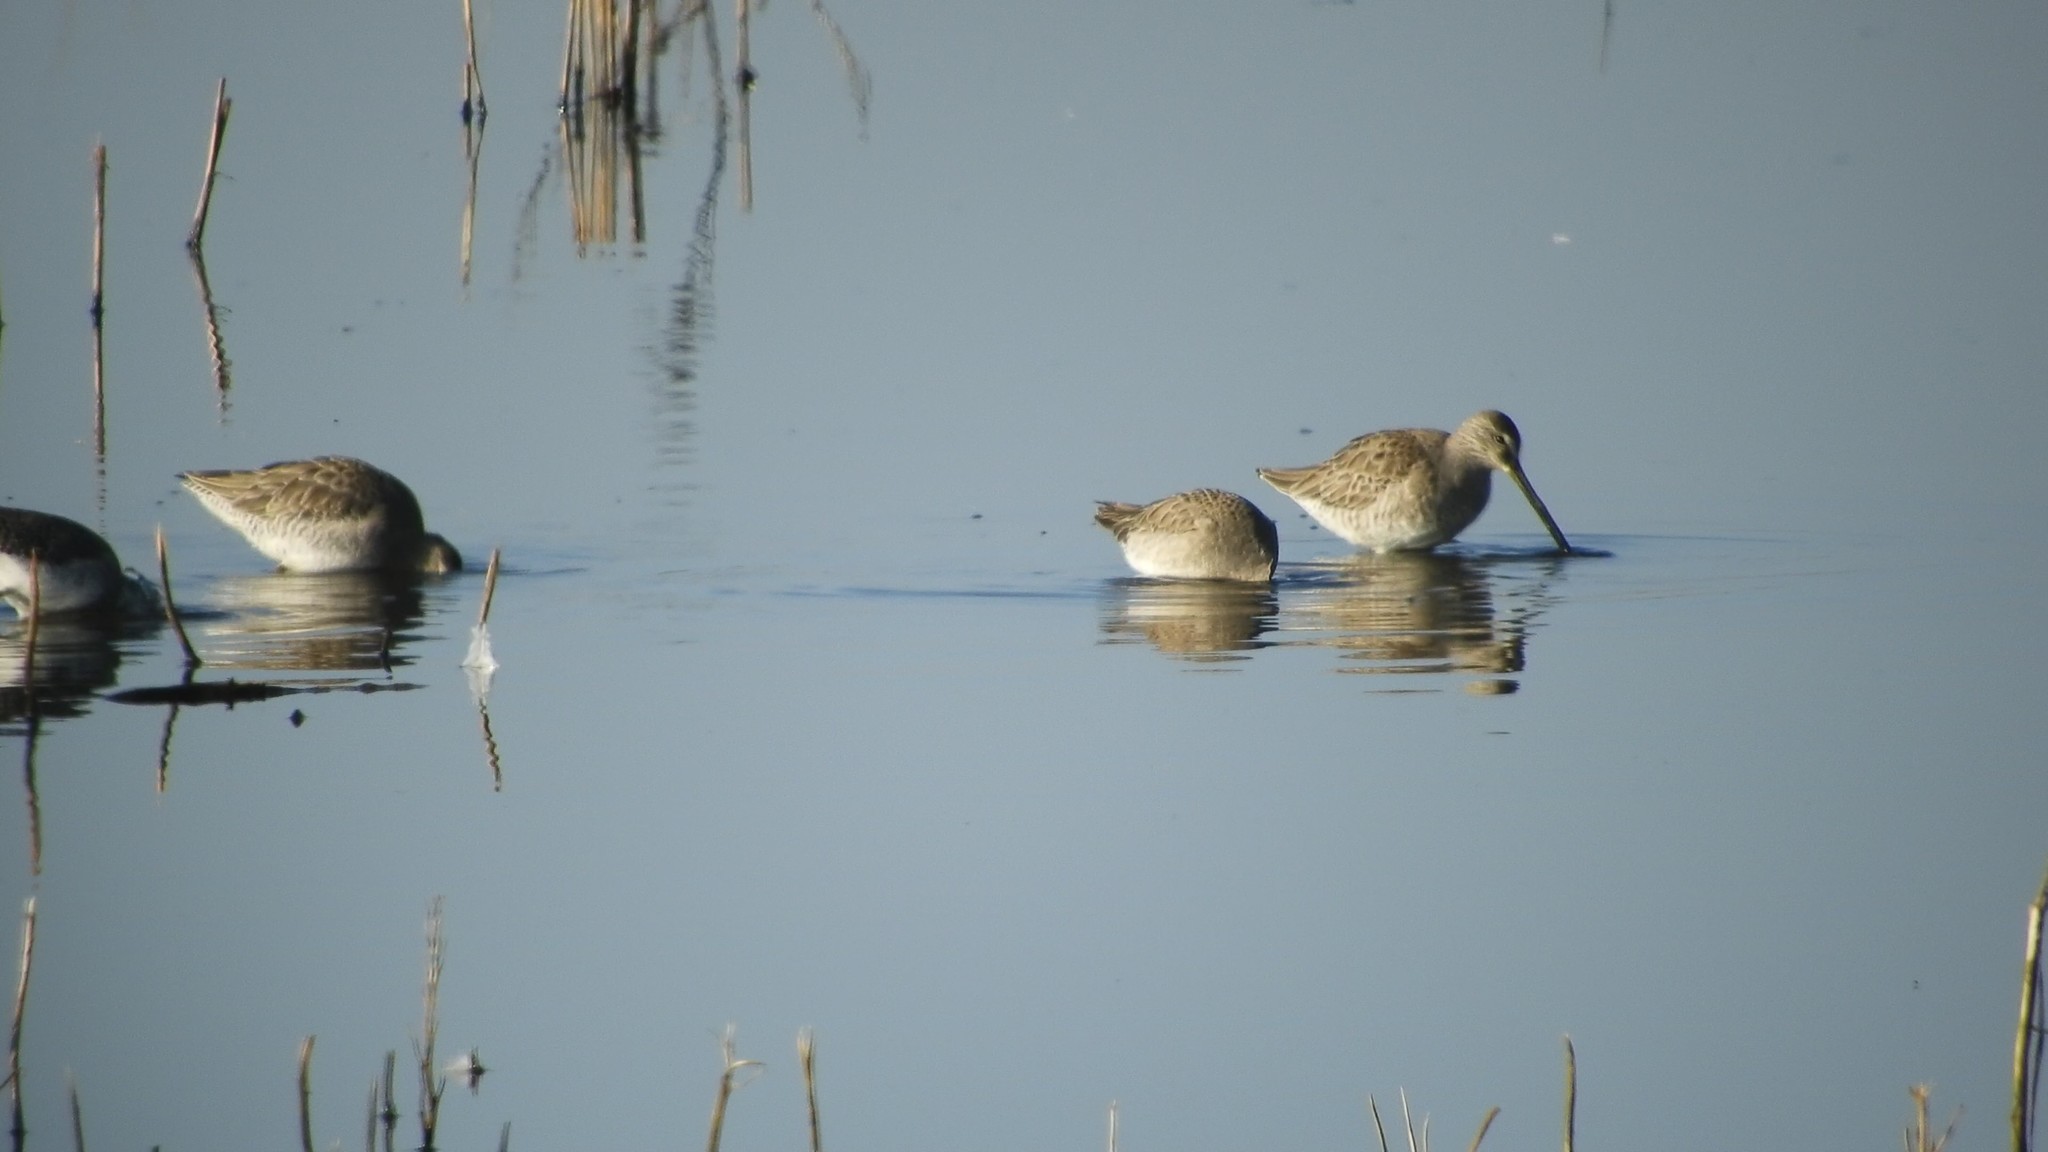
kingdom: Animalia
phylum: Chordata
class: Aves
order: Charadriiformes
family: Scolopacidae
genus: Limnodromus
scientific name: Limnodromus scolopaceus
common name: Long-billed dowitcher
